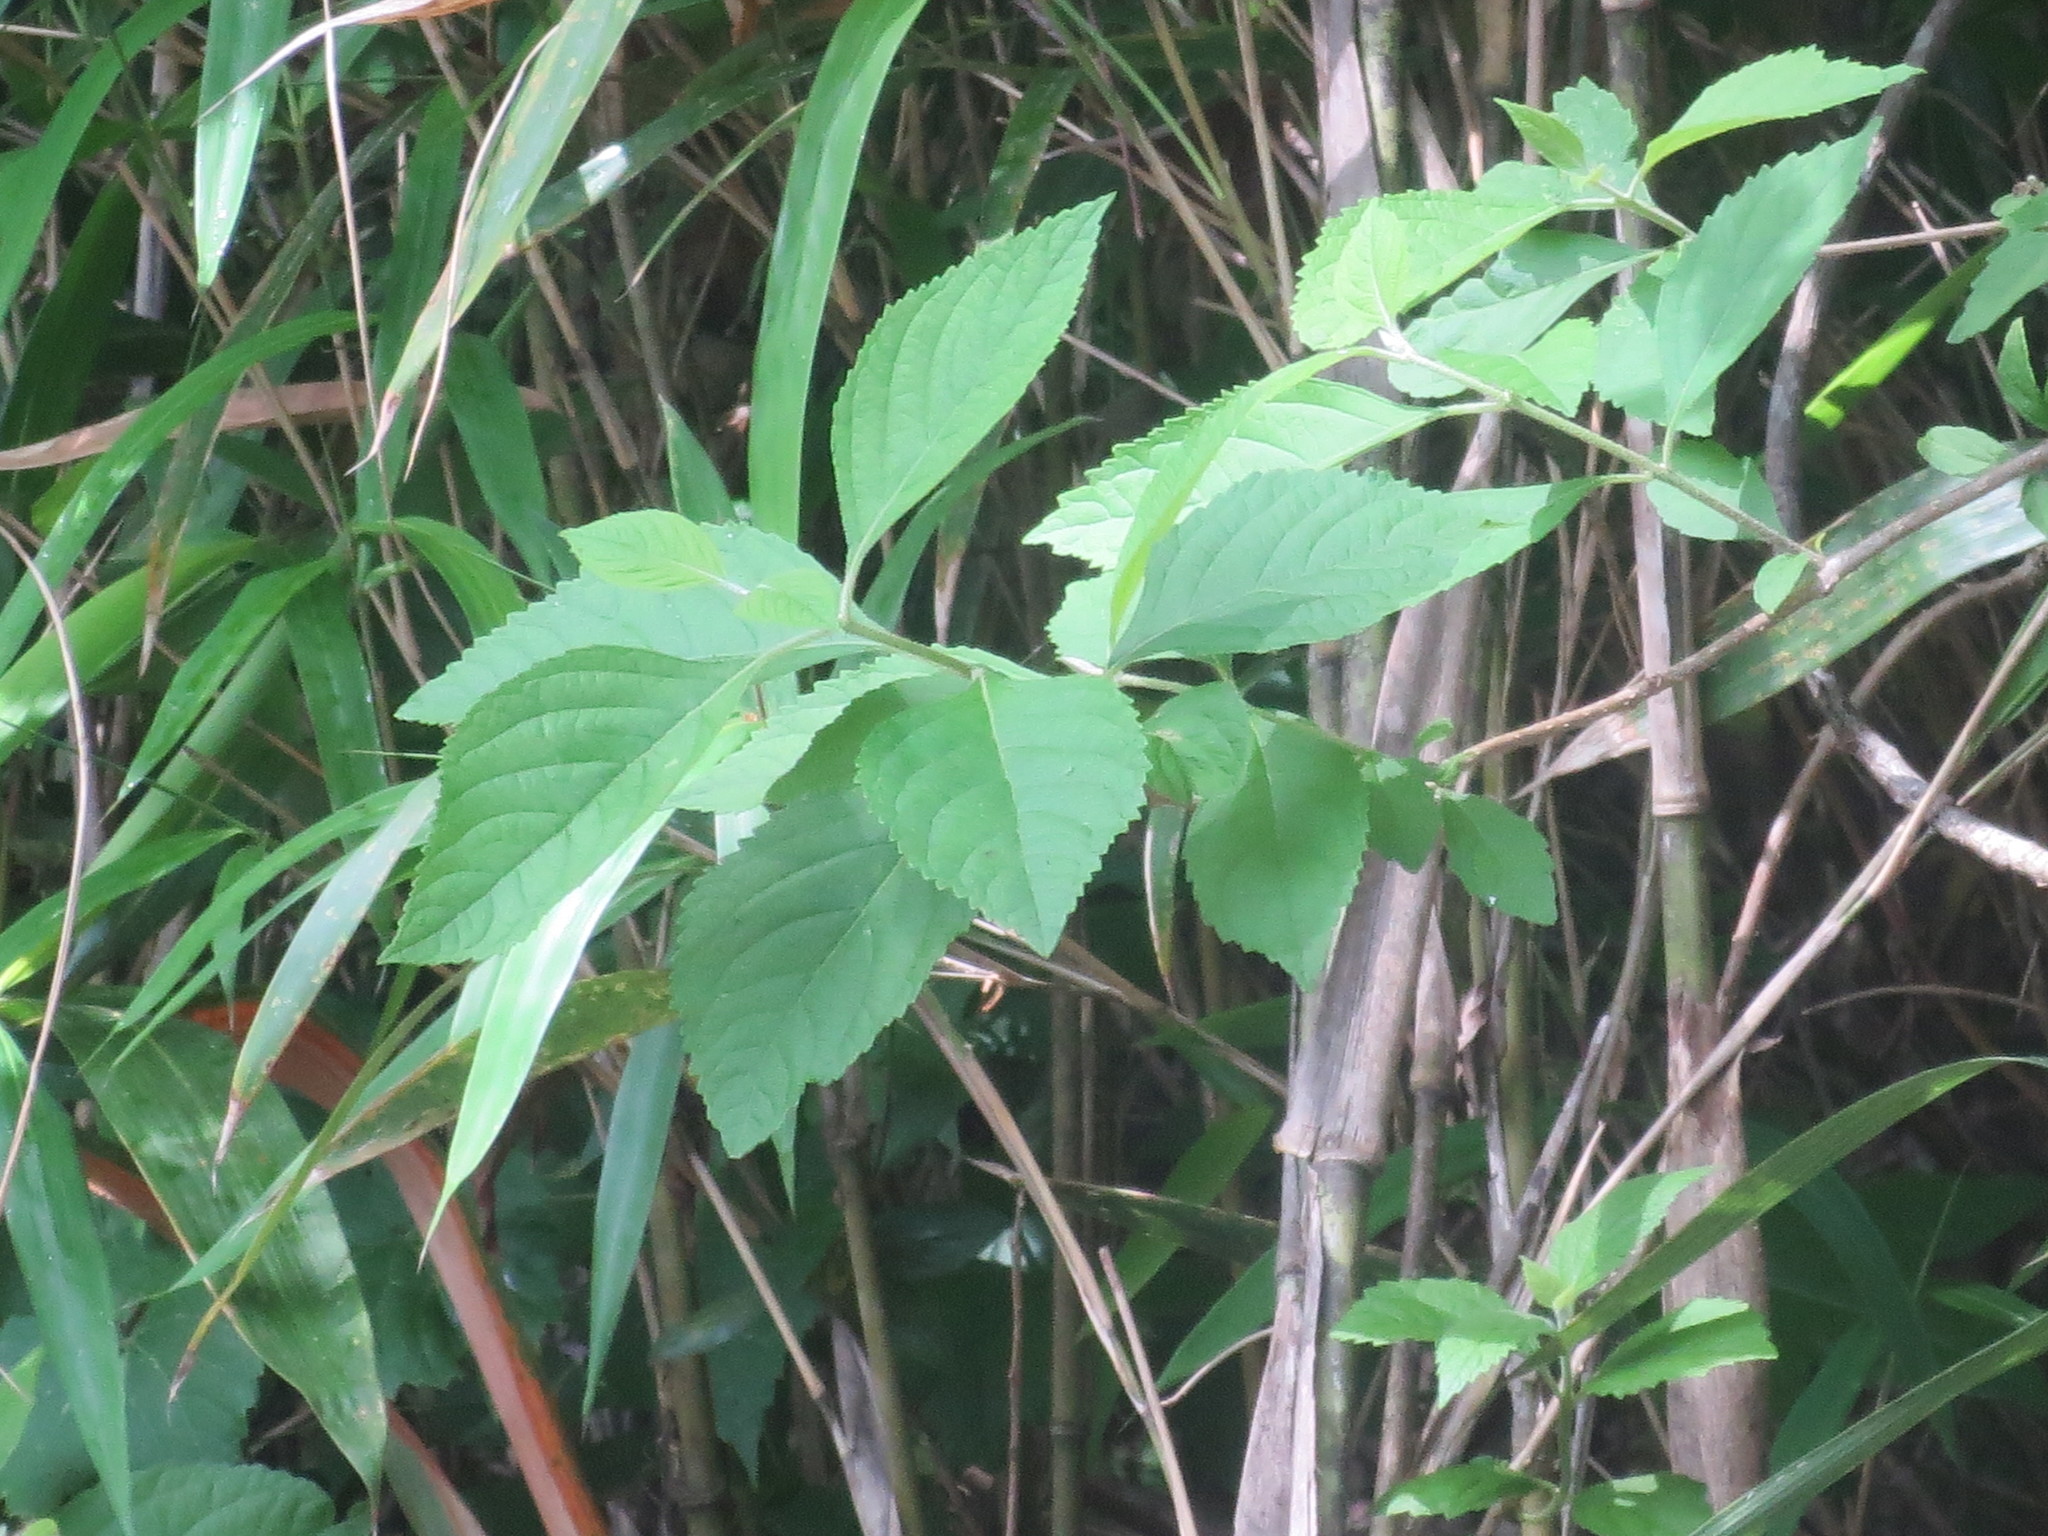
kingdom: Plantae
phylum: Tracheophyta
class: Magnoliopsida
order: Lamiales
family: Lamiaceae
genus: Callicarpa
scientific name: Callicarpa americana
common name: American beautyberry
